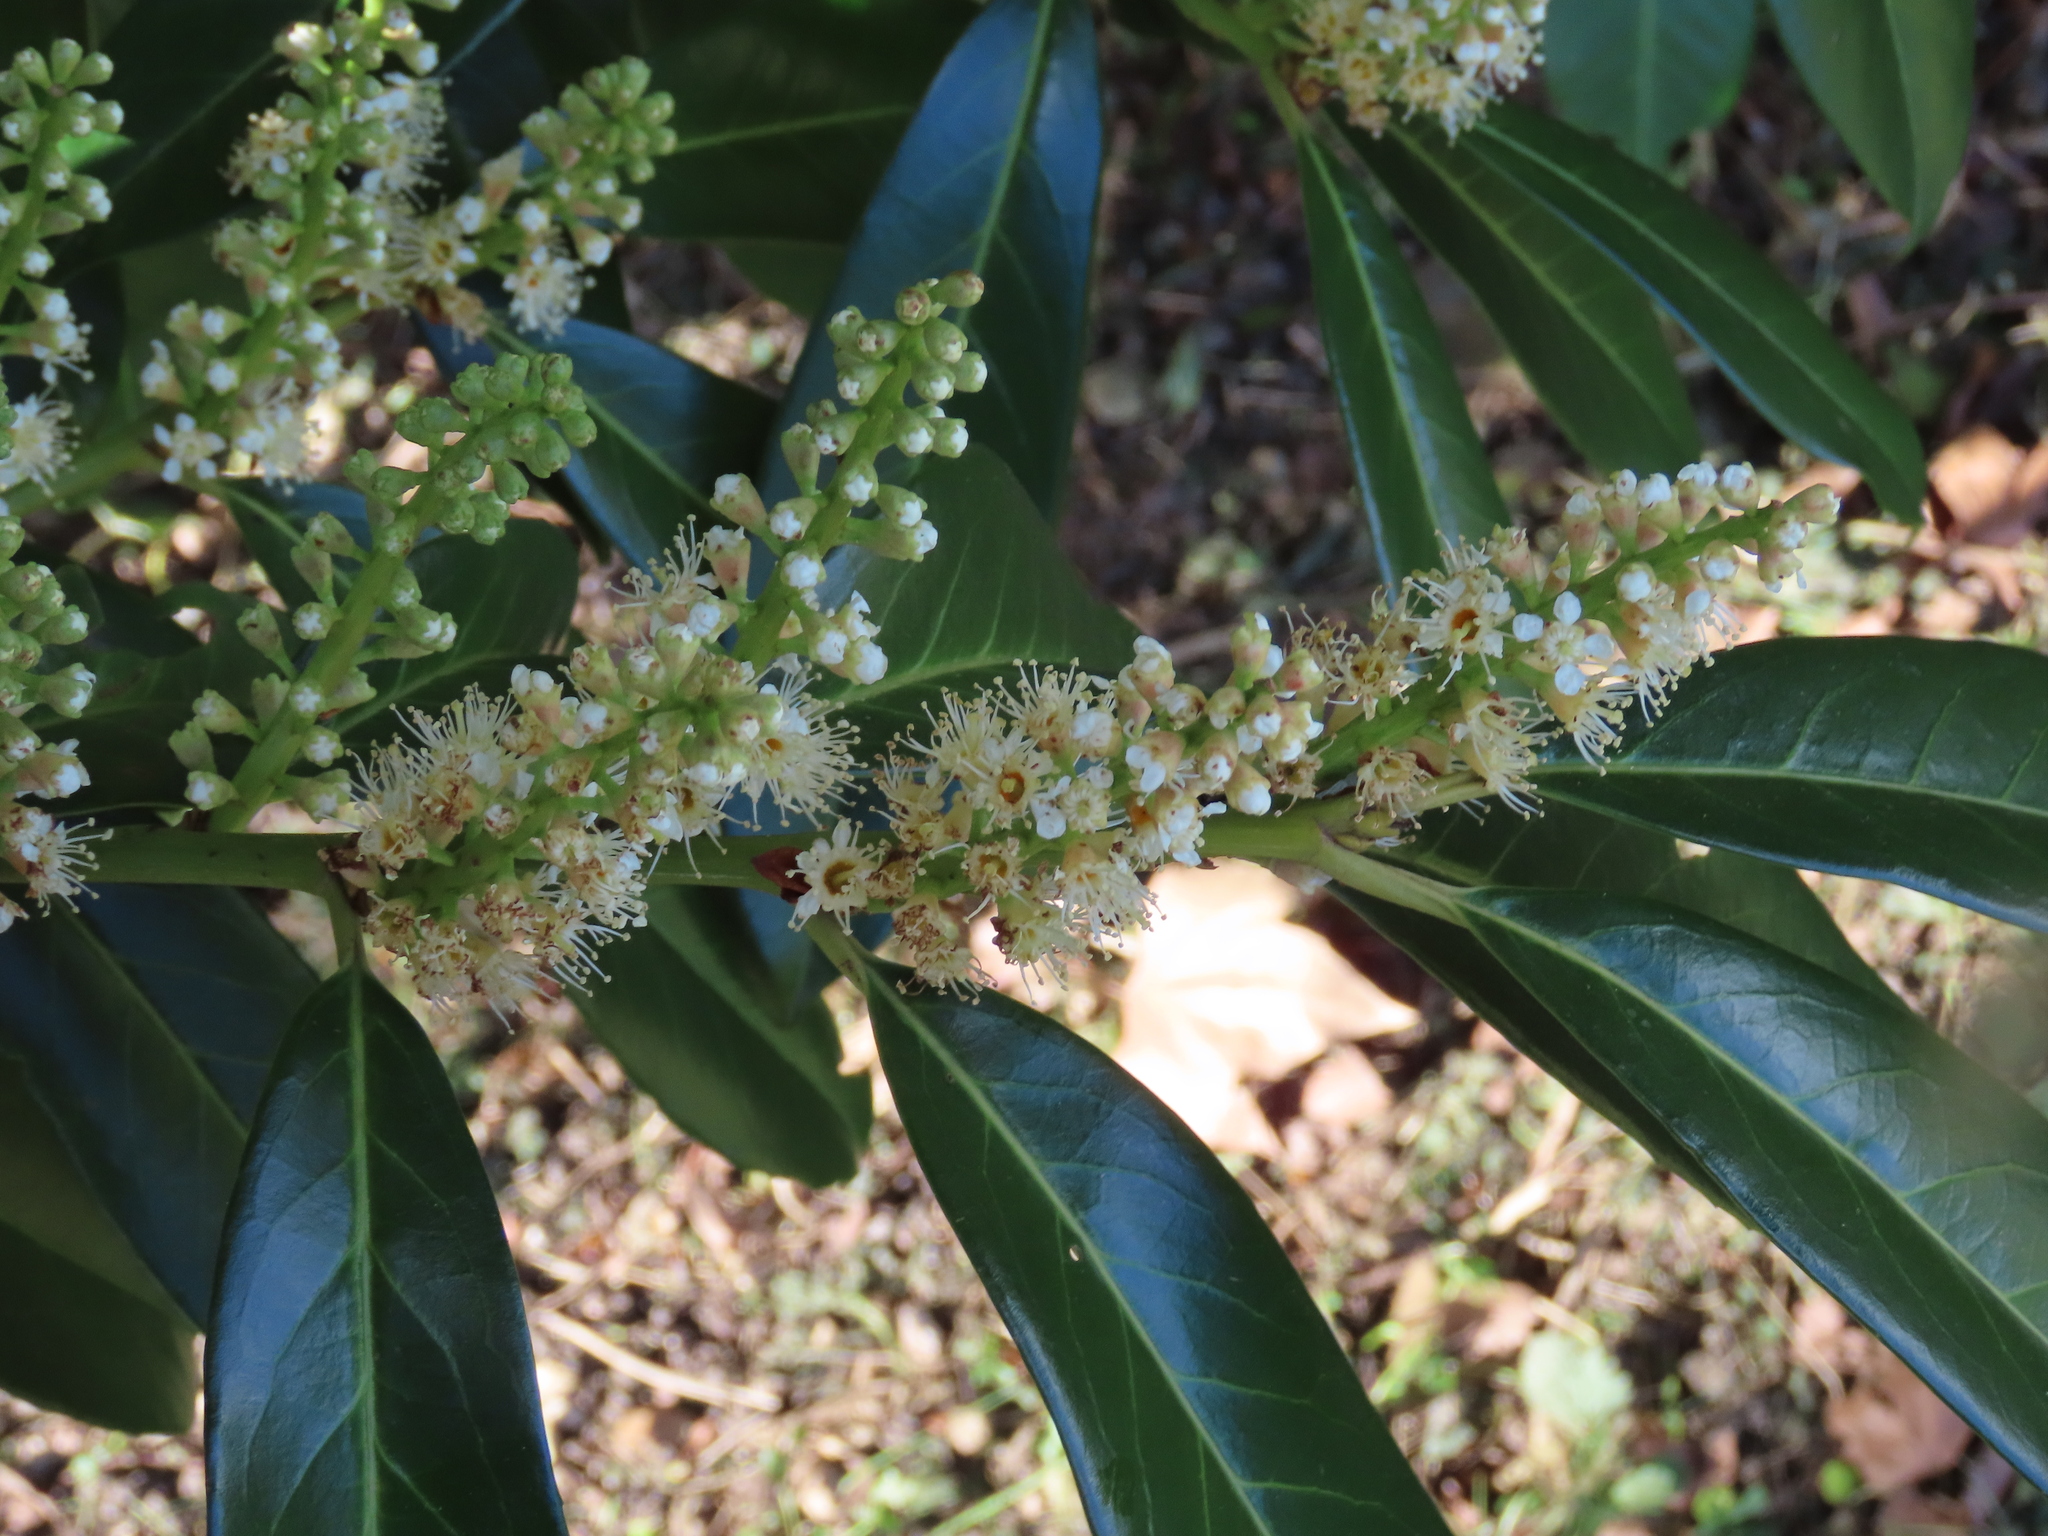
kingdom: Plantae
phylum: Tracheophyta
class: Magnoliopsida
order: Rosales
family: Rosaceae
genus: Prunus
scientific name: Prunus laurocerasus
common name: Cherry laurel
